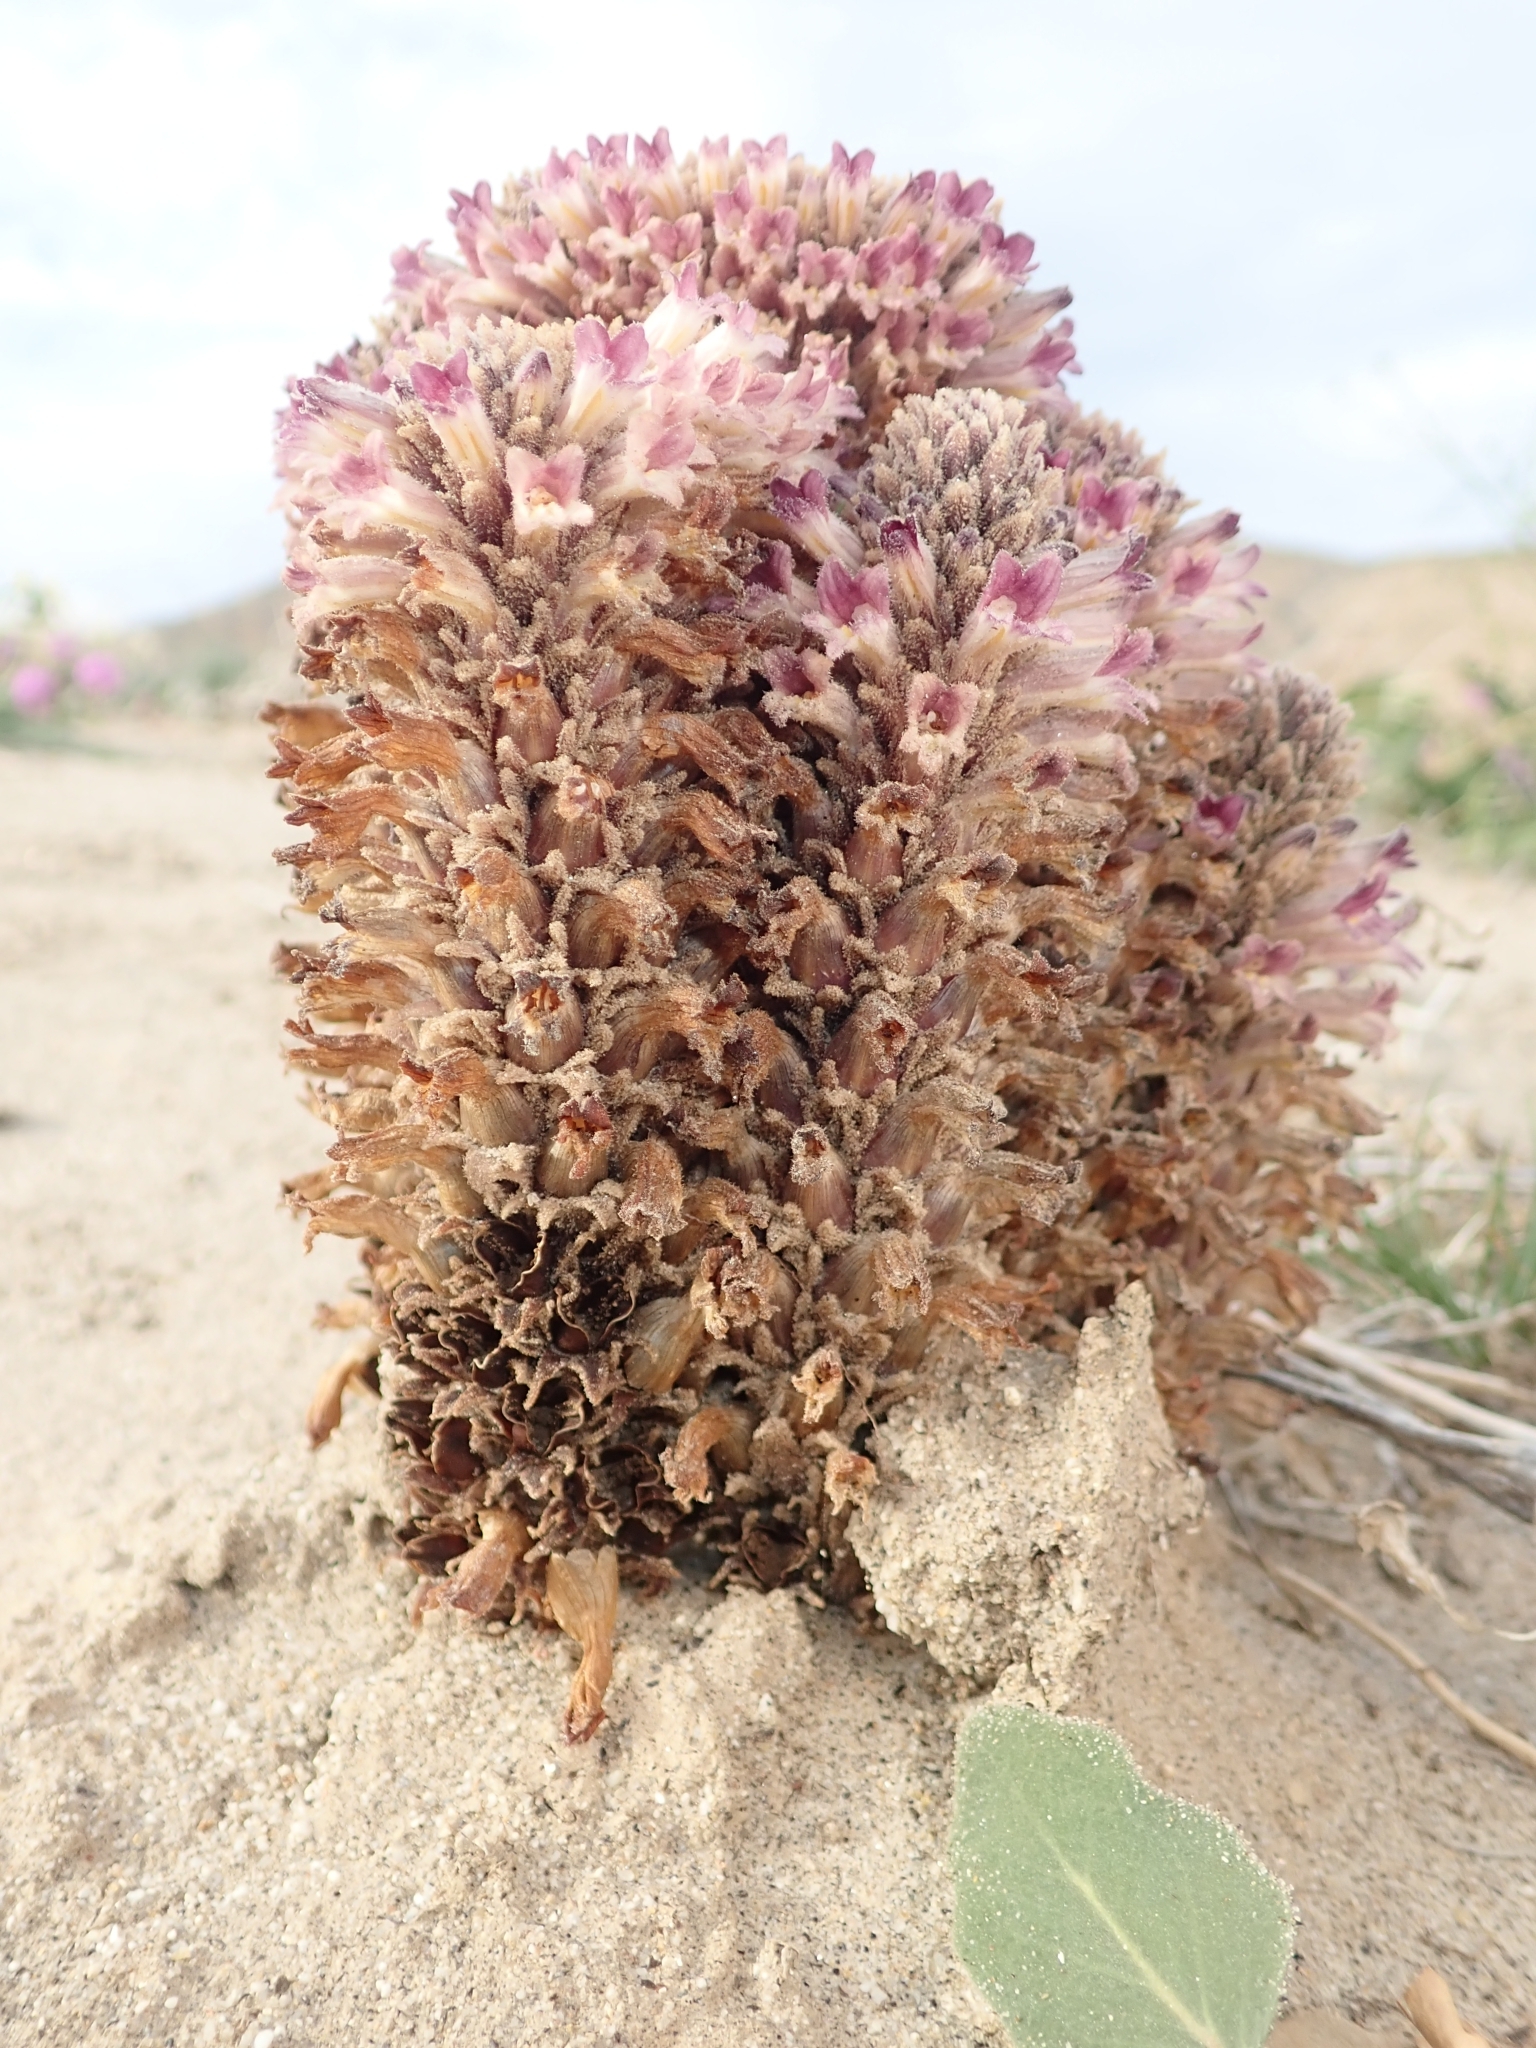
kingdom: Plantae
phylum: Tracheophyta
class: Magnoliopsida
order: Lamiales
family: Orobanchaceae
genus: Aphyllon
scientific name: Aphyllon cooperi
